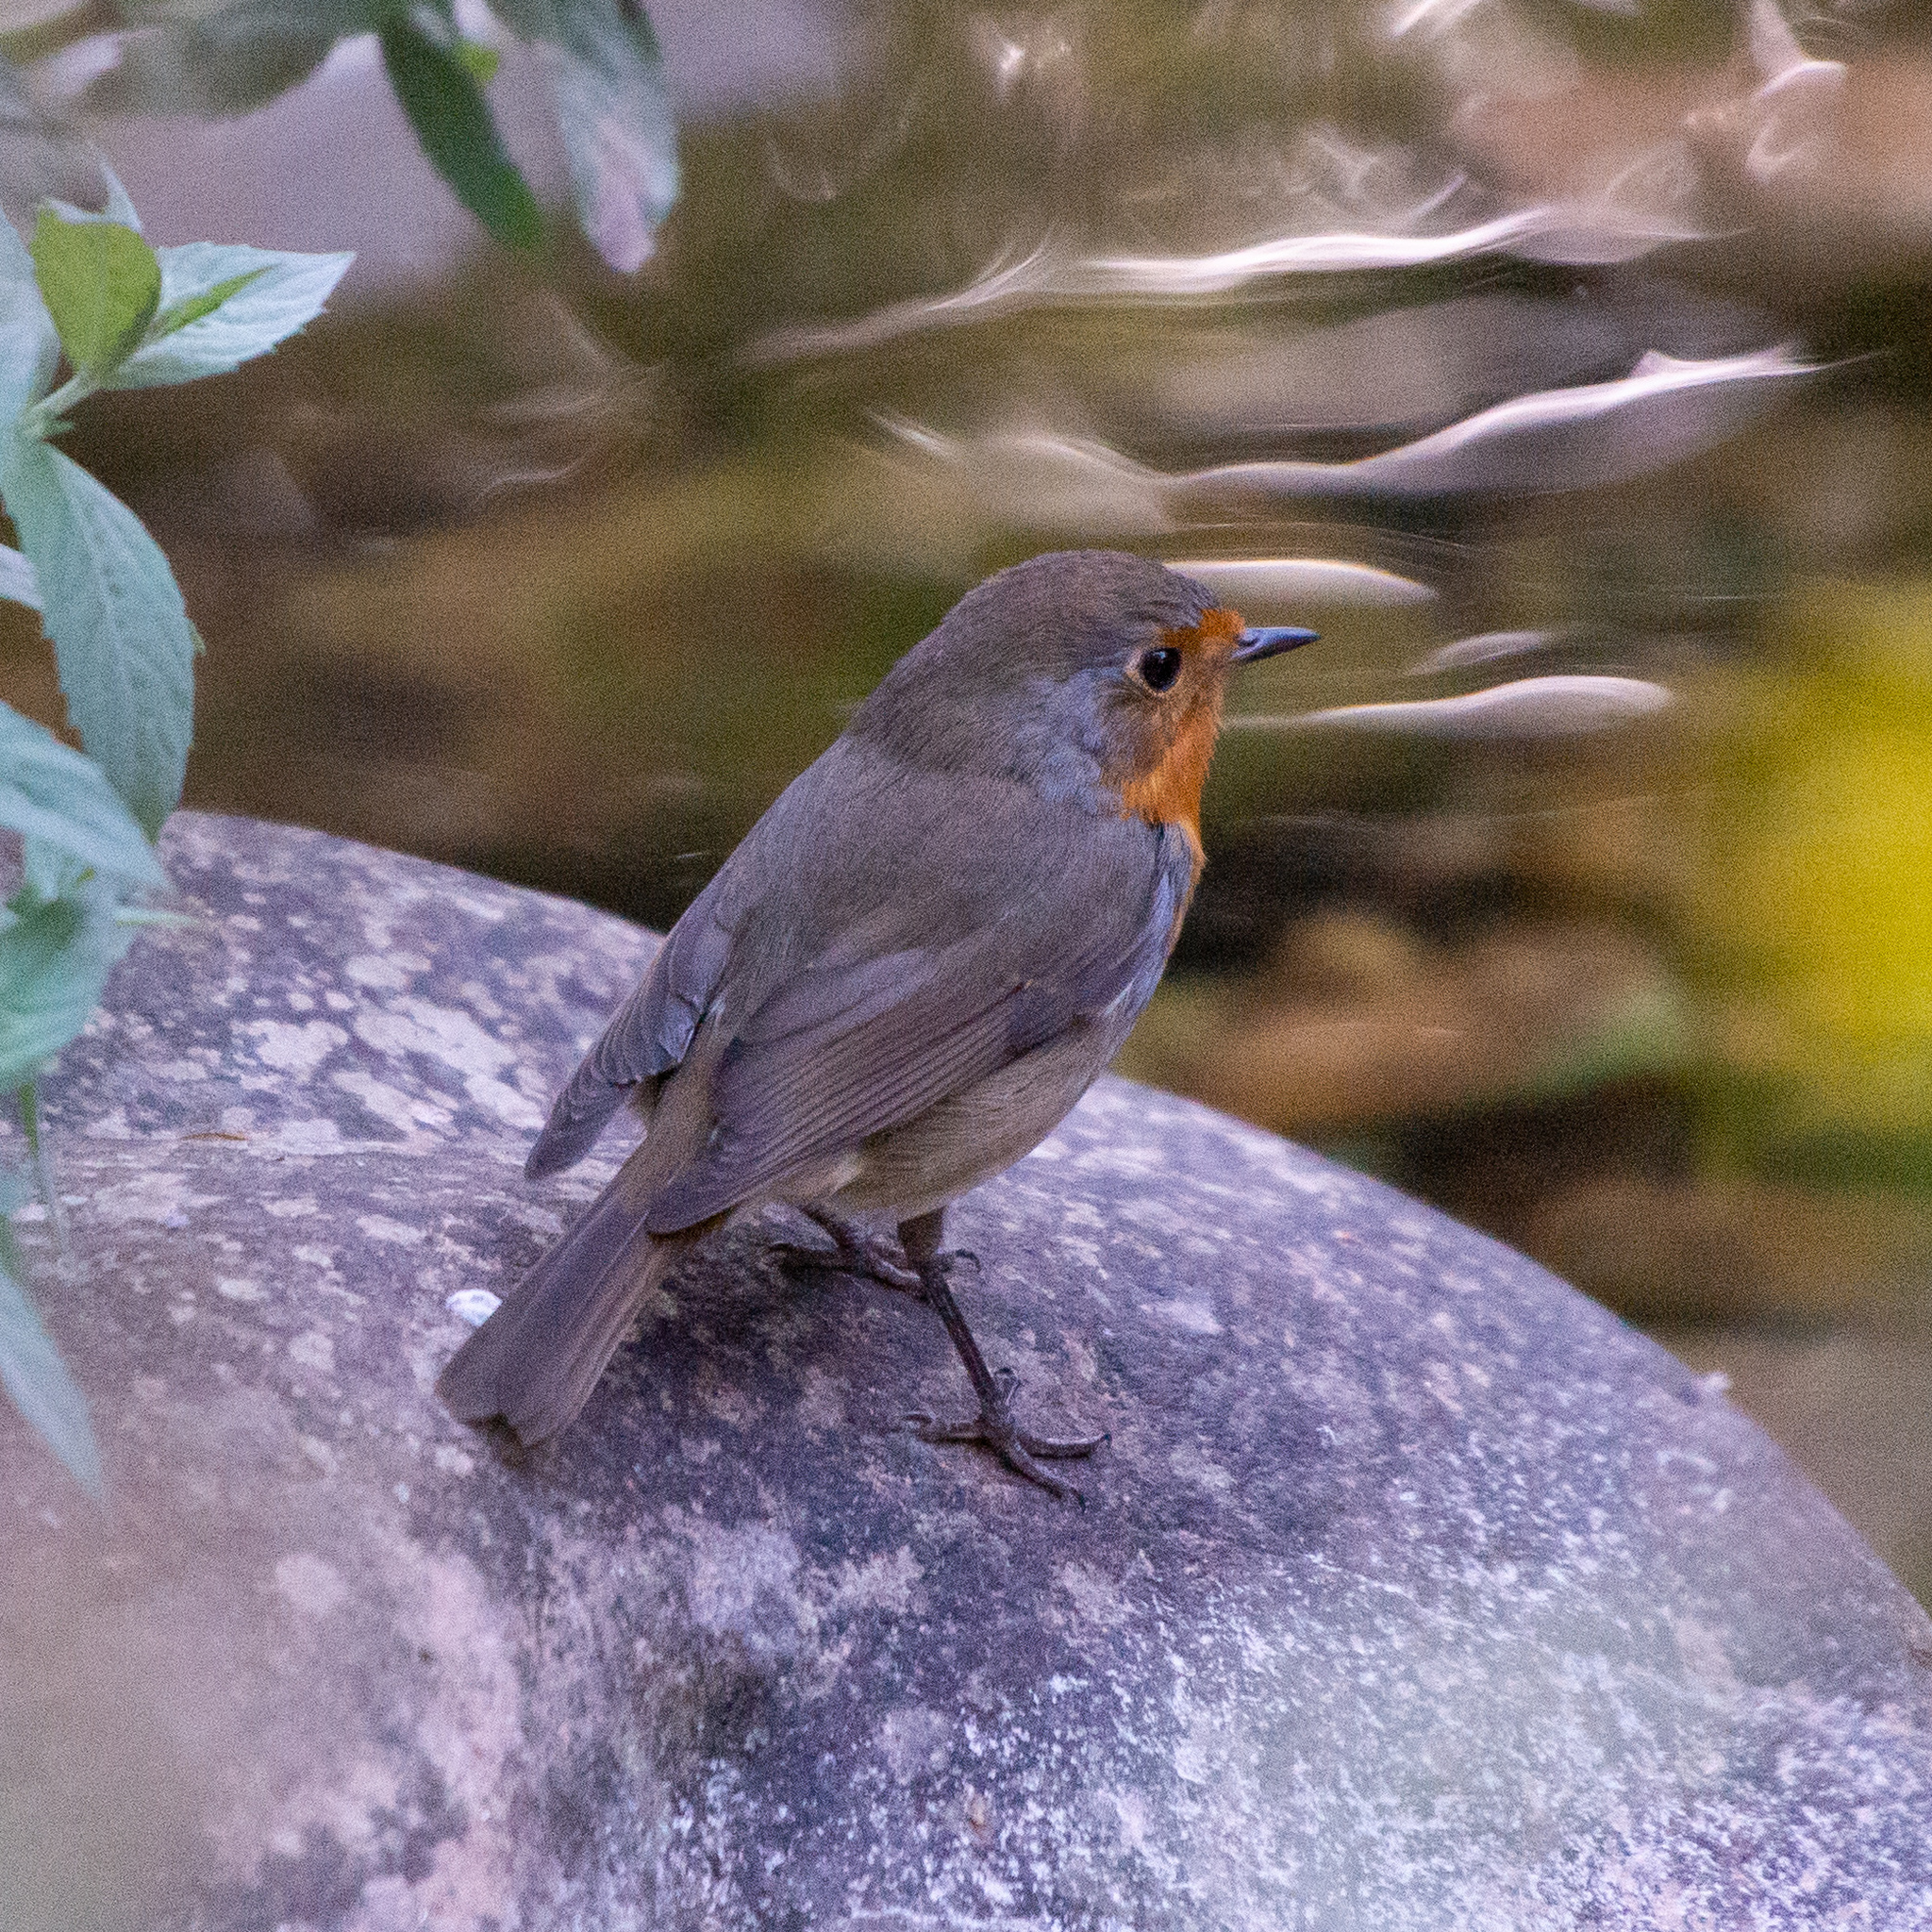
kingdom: Animalia
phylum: Chordata
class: Aves
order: Passeriformes
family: Muscicapidae
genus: Erithacus
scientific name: Erithacus rubecula
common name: European robin
